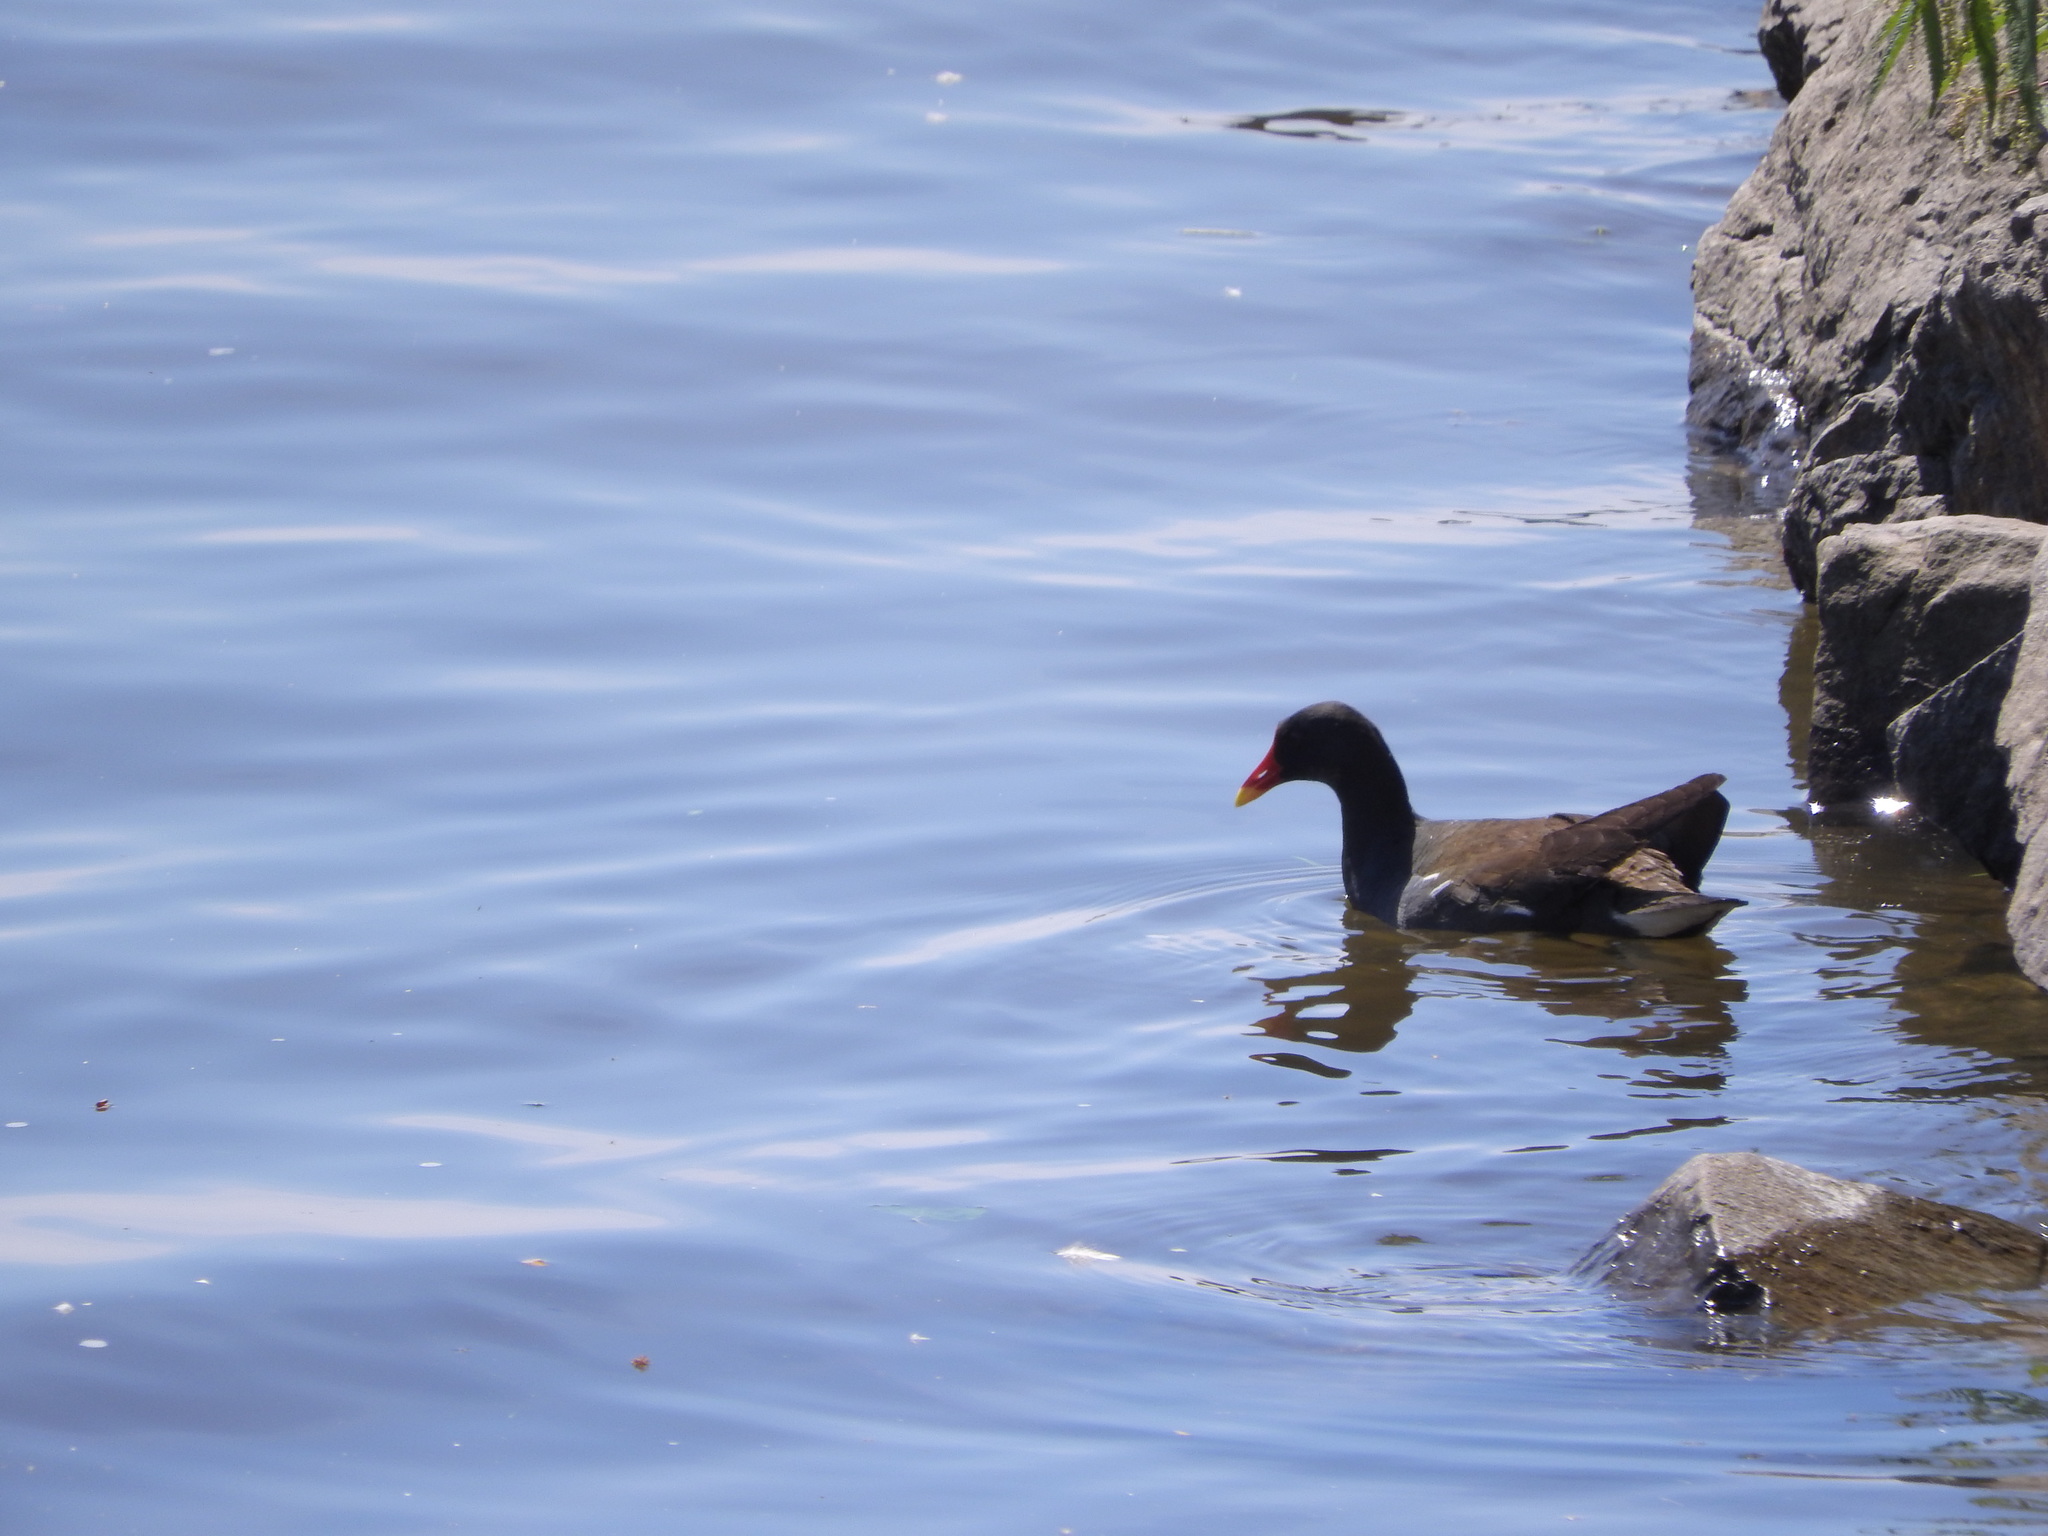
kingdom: Animalia
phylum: Chordata
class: Aves
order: Gruiformes
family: Rallidae
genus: Gallinula
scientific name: Gallinula chloropus
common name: Common moorhen
